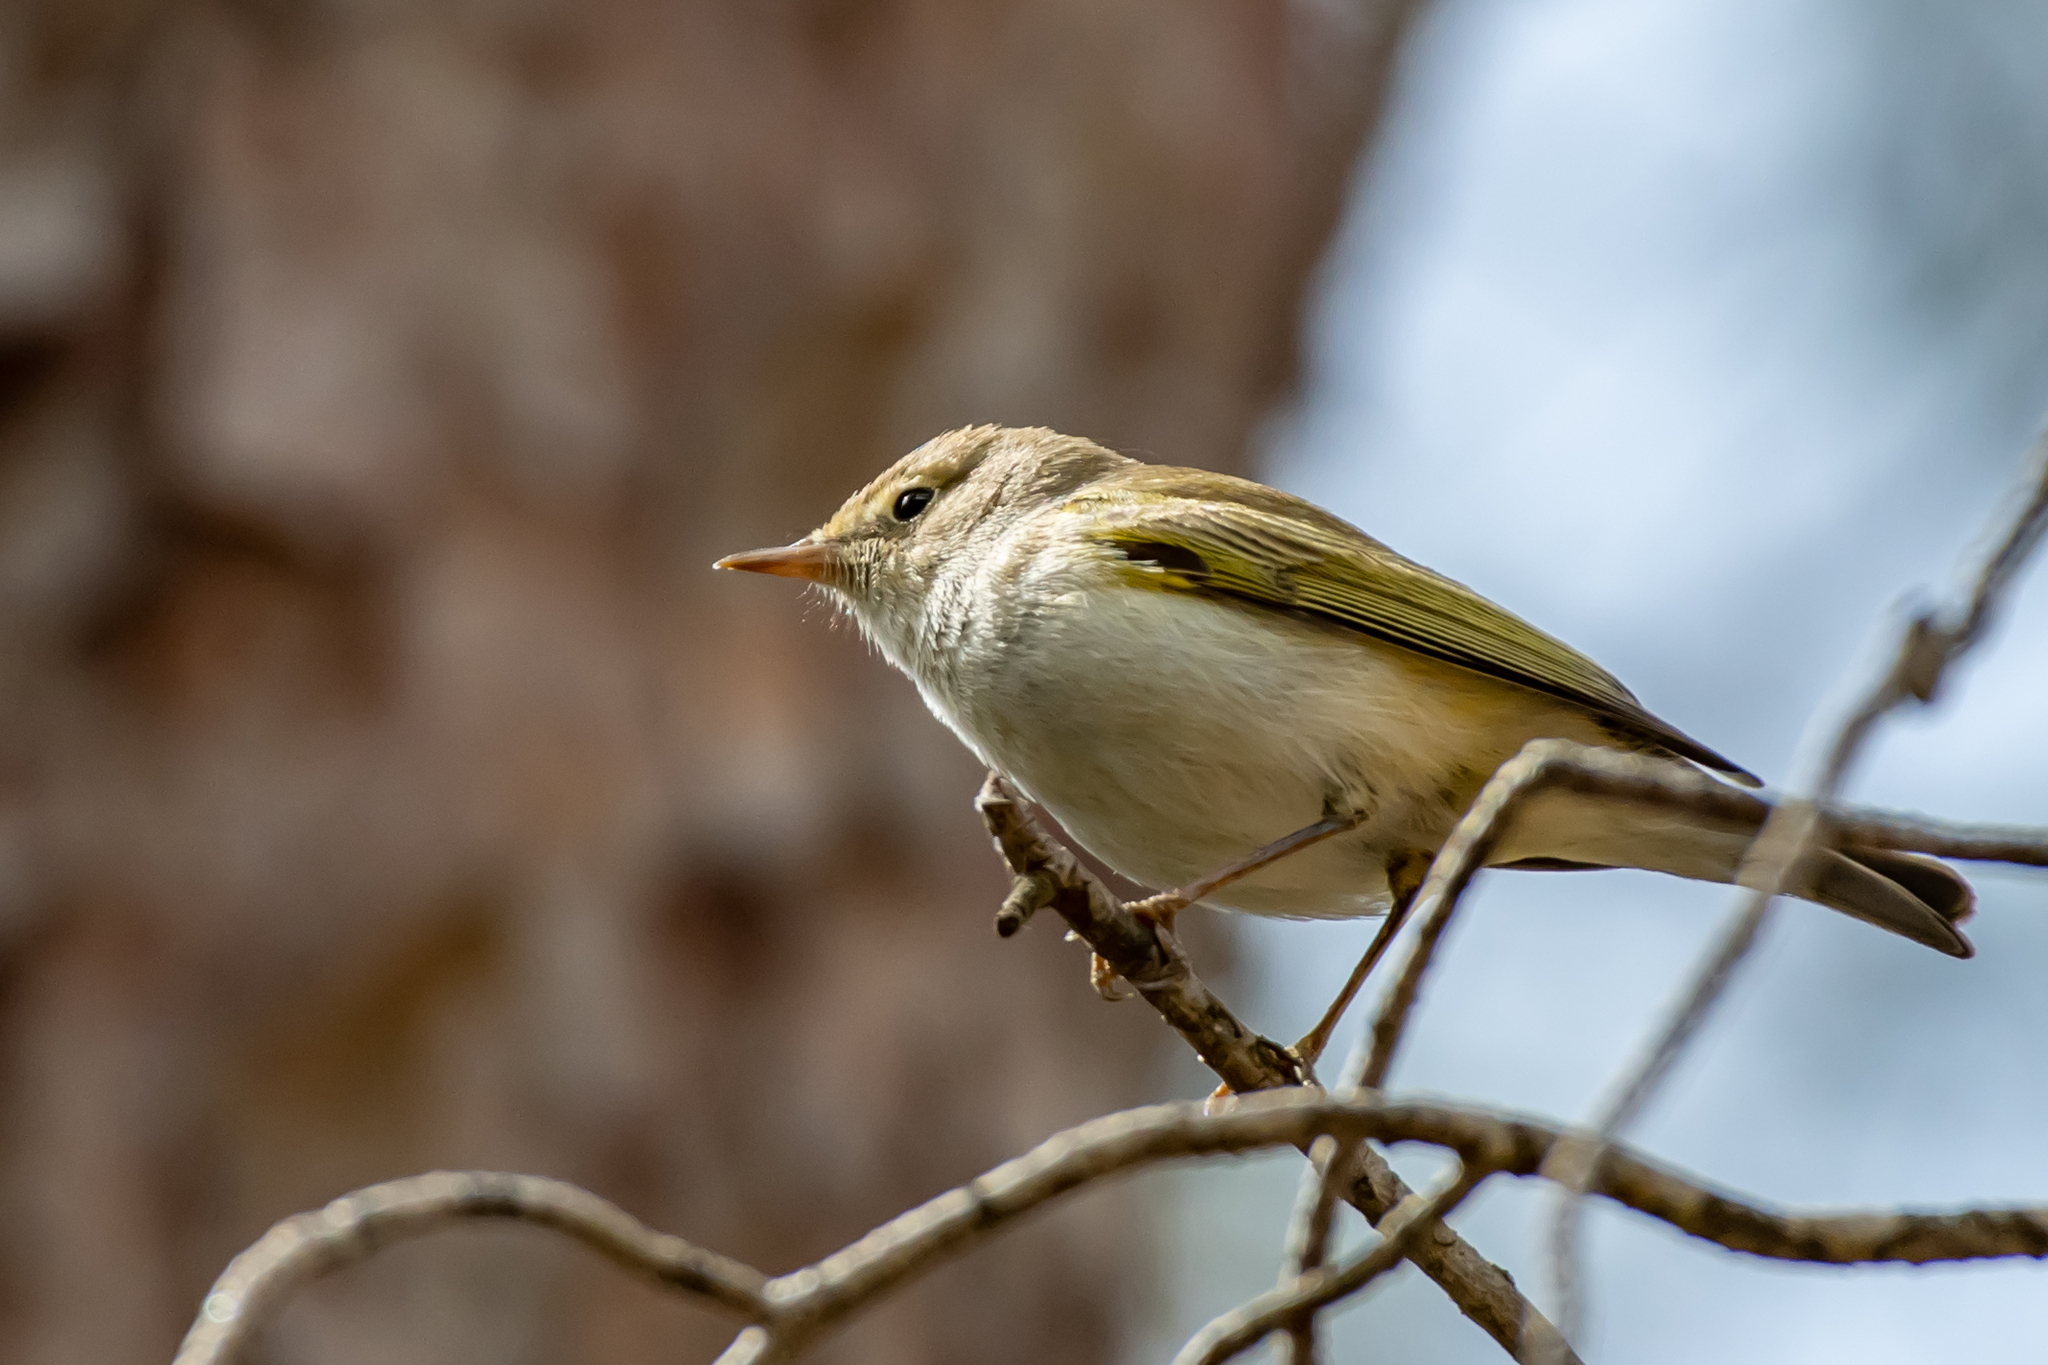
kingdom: Animalia
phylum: Chordata
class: Aves
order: Passeriformes
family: Phylloscopidae
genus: Phylloscopus
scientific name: Phylloscopus bonelli
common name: Western bonelli's warbler
